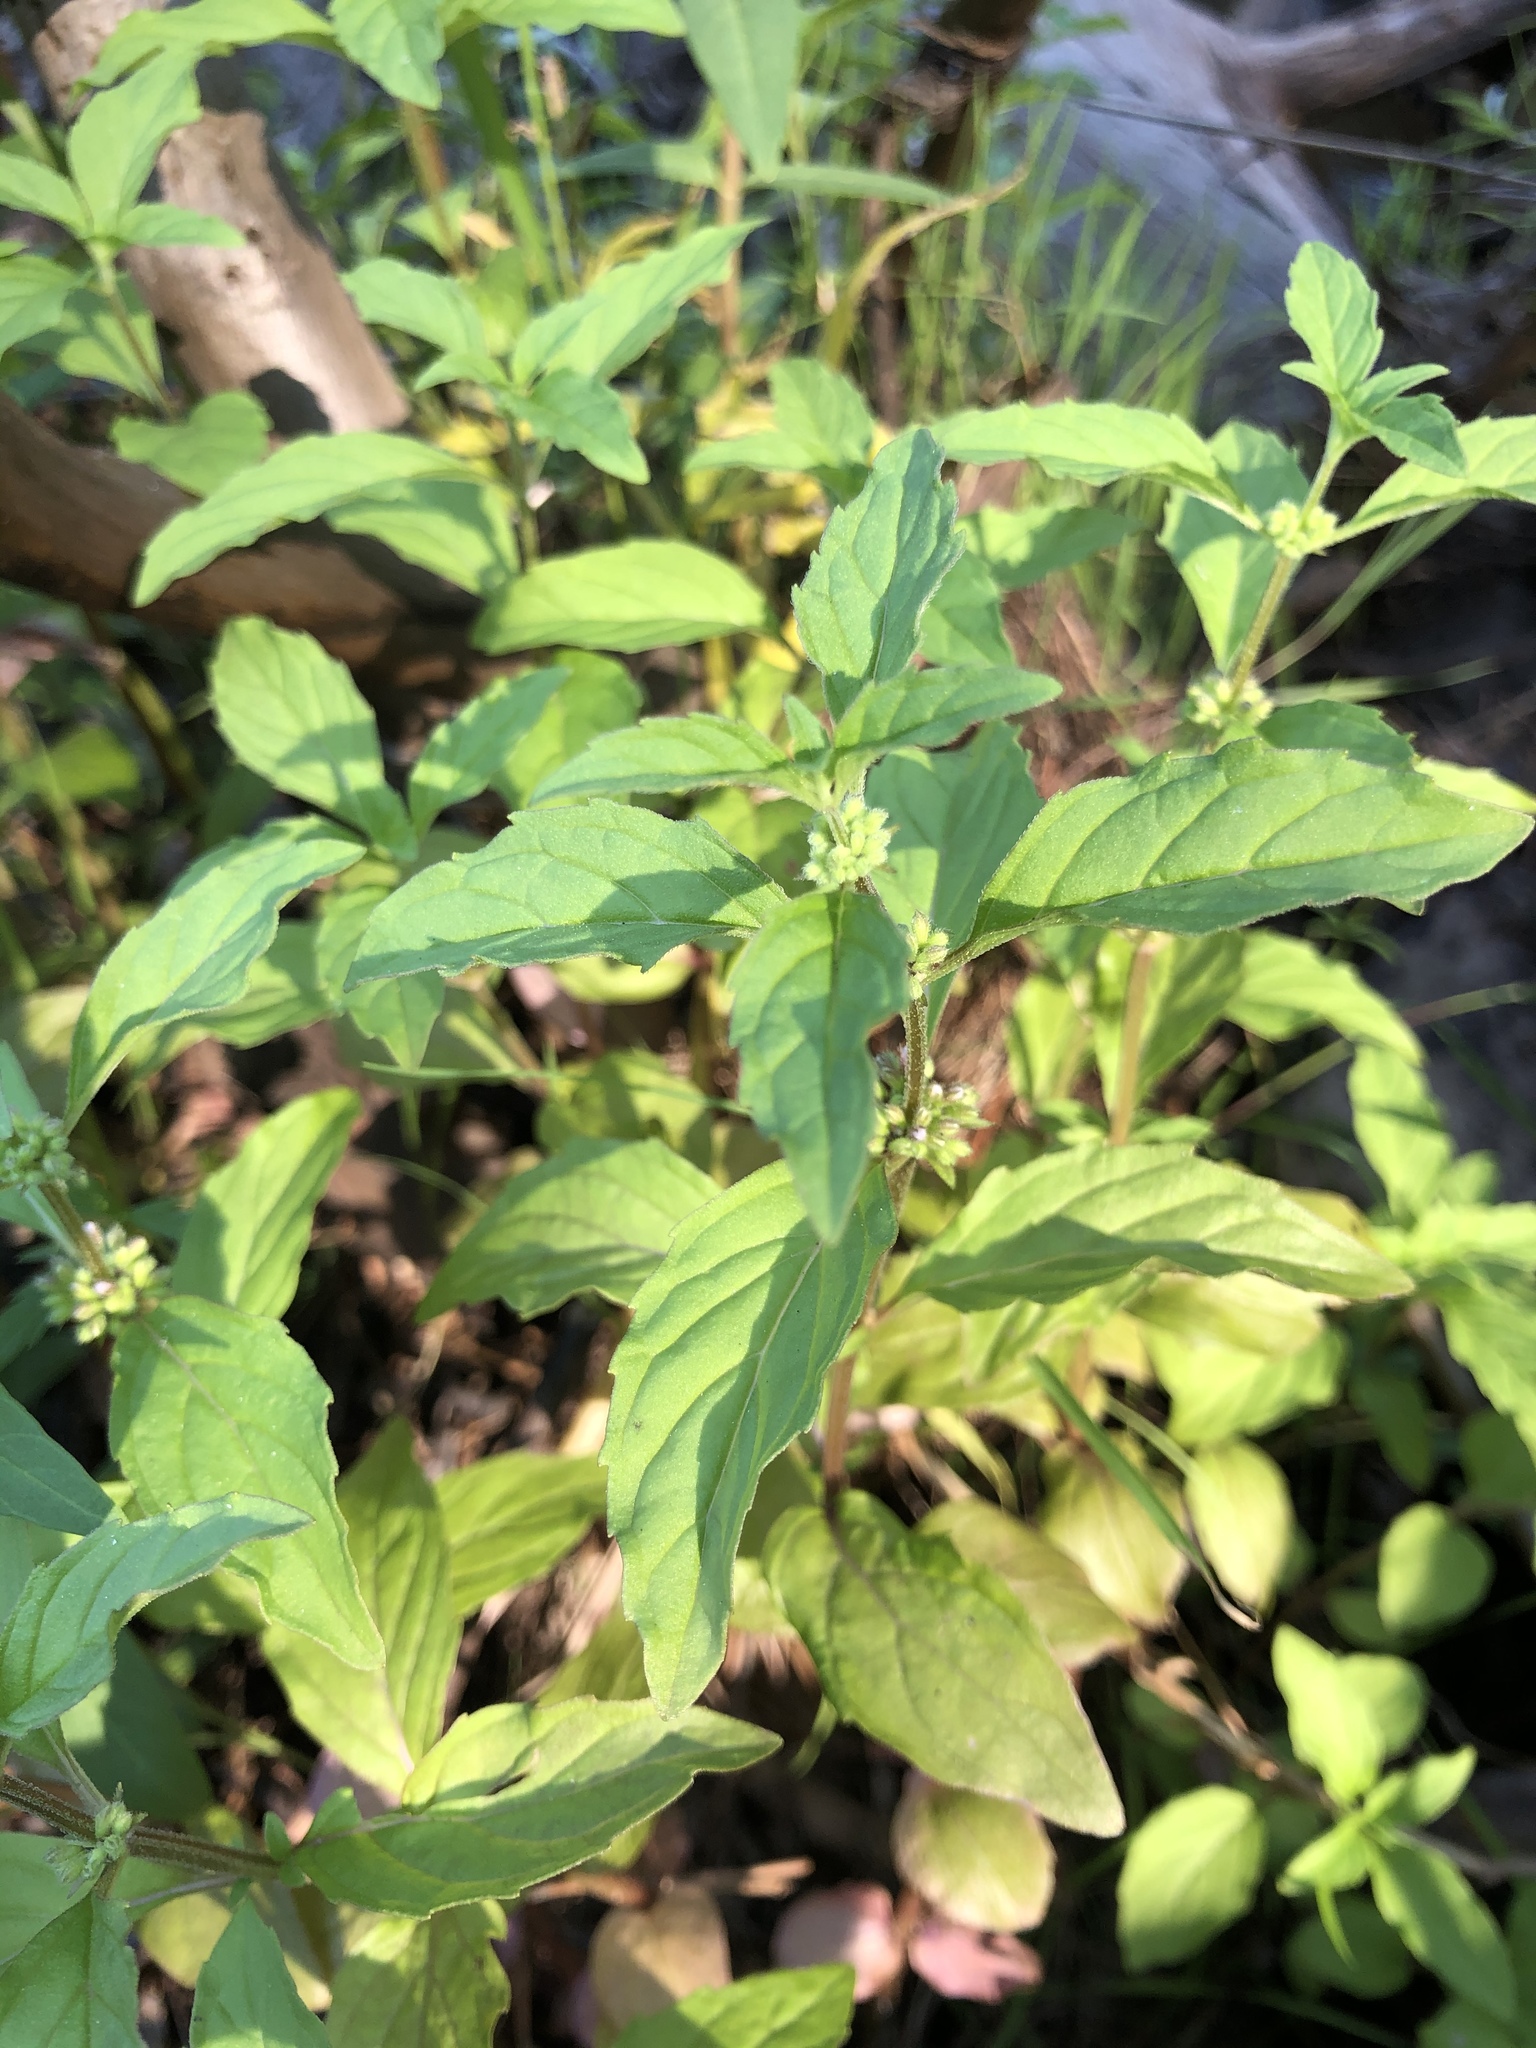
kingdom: Plantae
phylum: Tracheophyta
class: Magnoliopsida
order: Lamiales
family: Lamiaceae
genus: Mentha
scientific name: Mentha arvensis
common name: Corn mint
